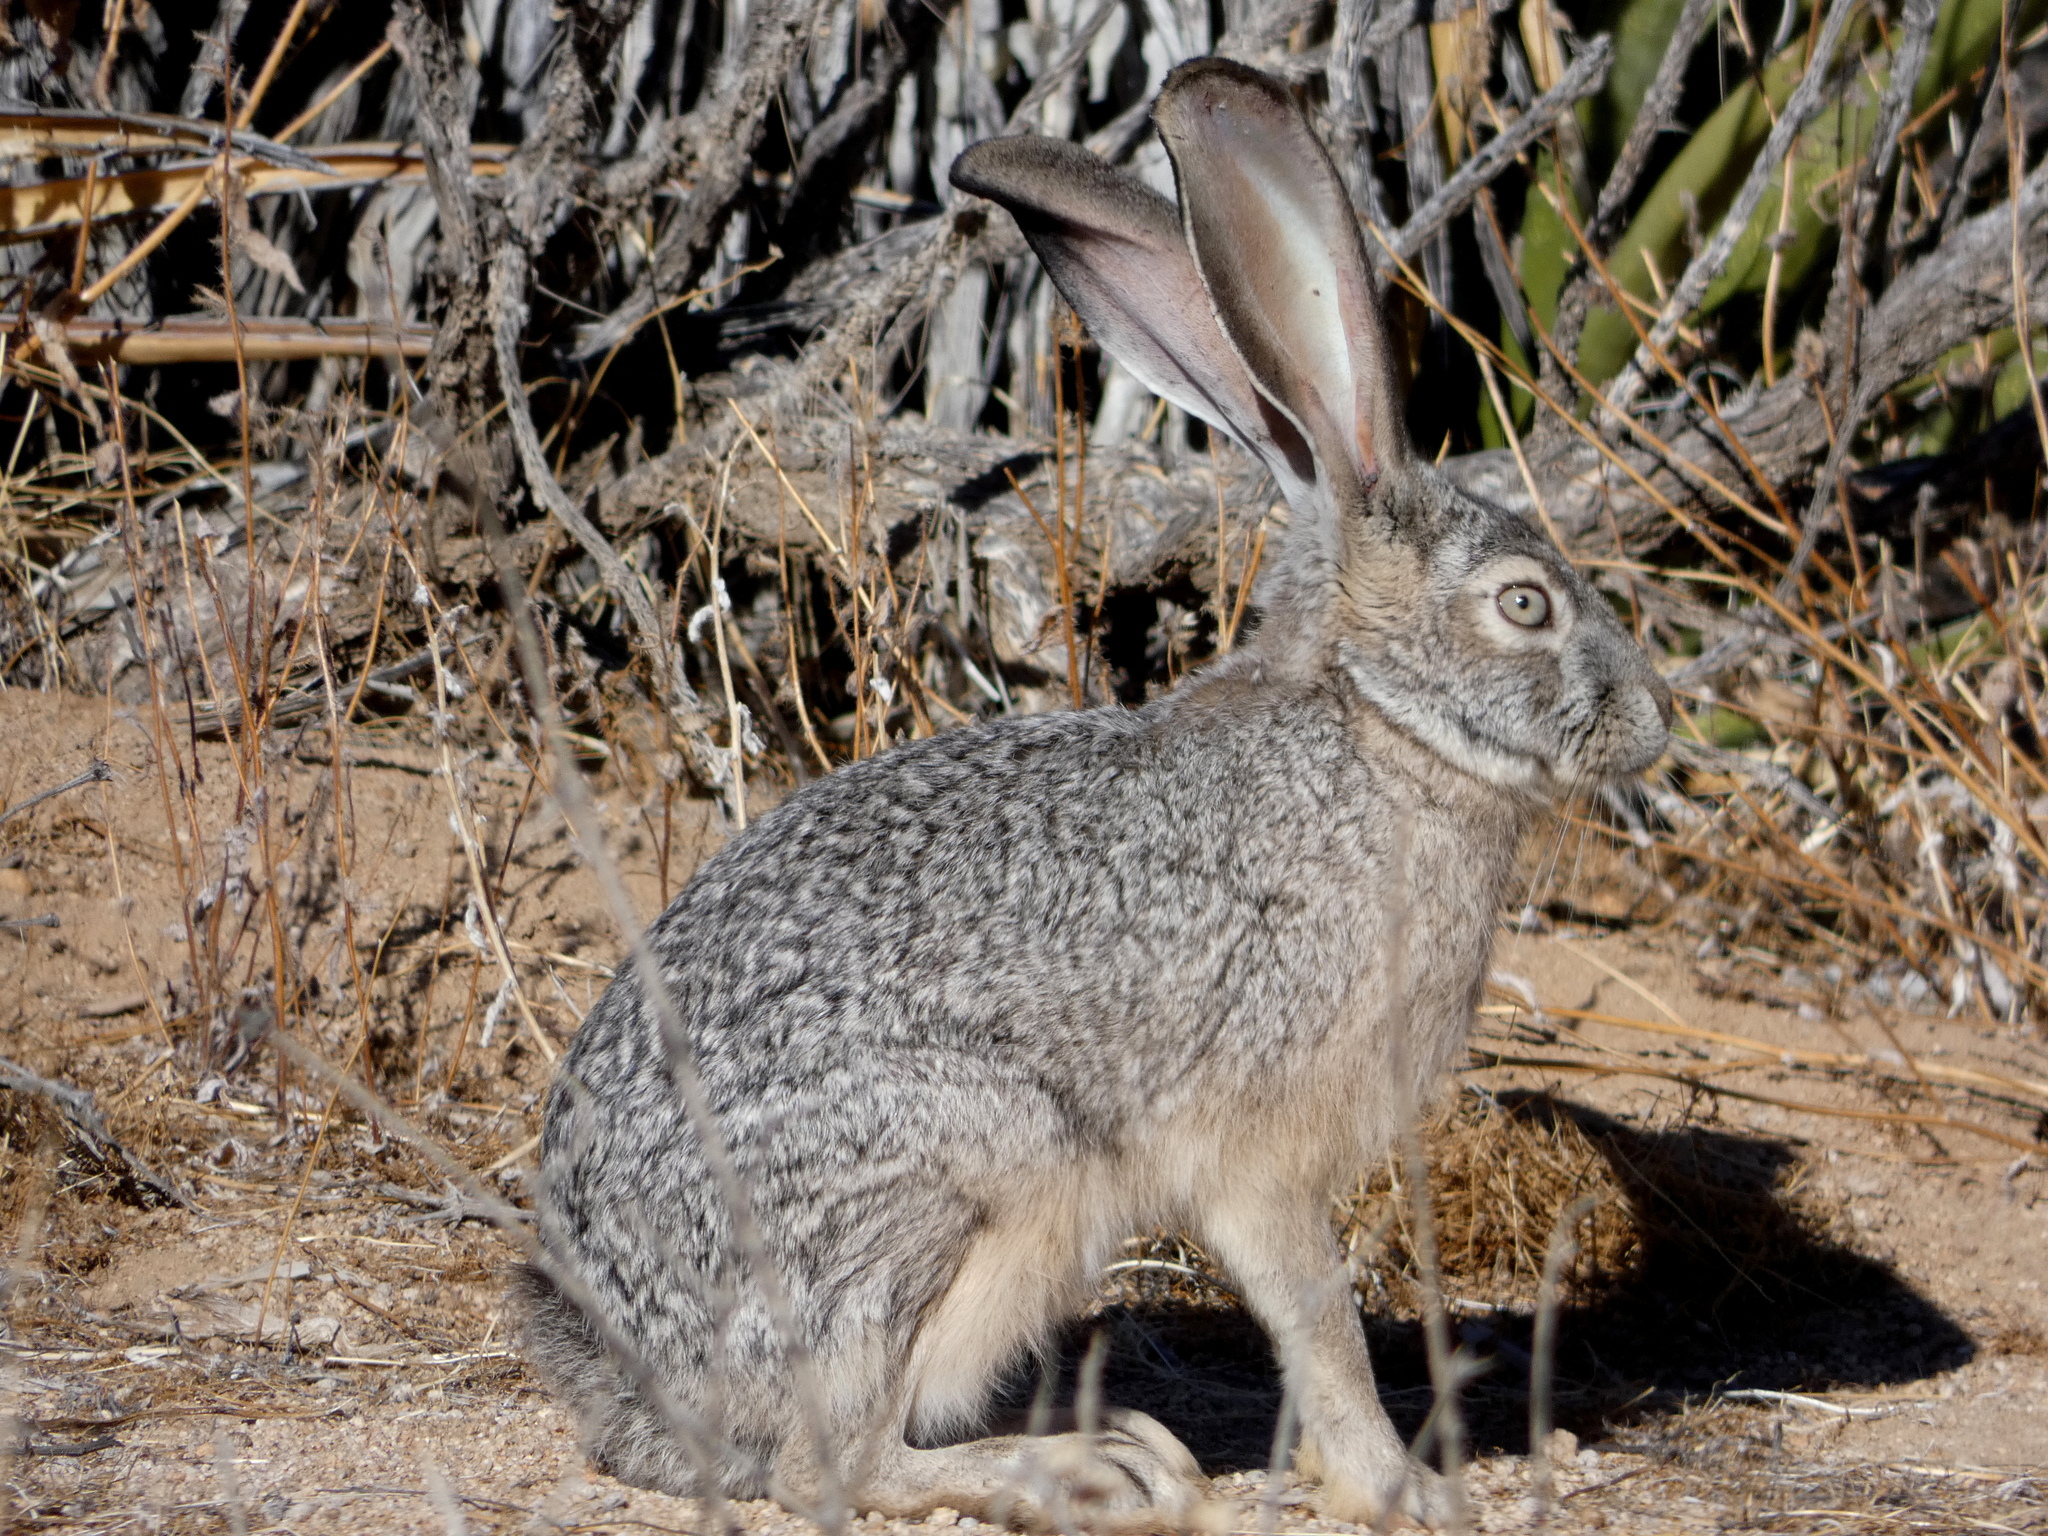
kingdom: Animalia
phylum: Chordata
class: Mammalia
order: Lagomorpha
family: Leporidae
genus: Lepus
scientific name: Lepus californicus
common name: Black-tailed jackrabbit
